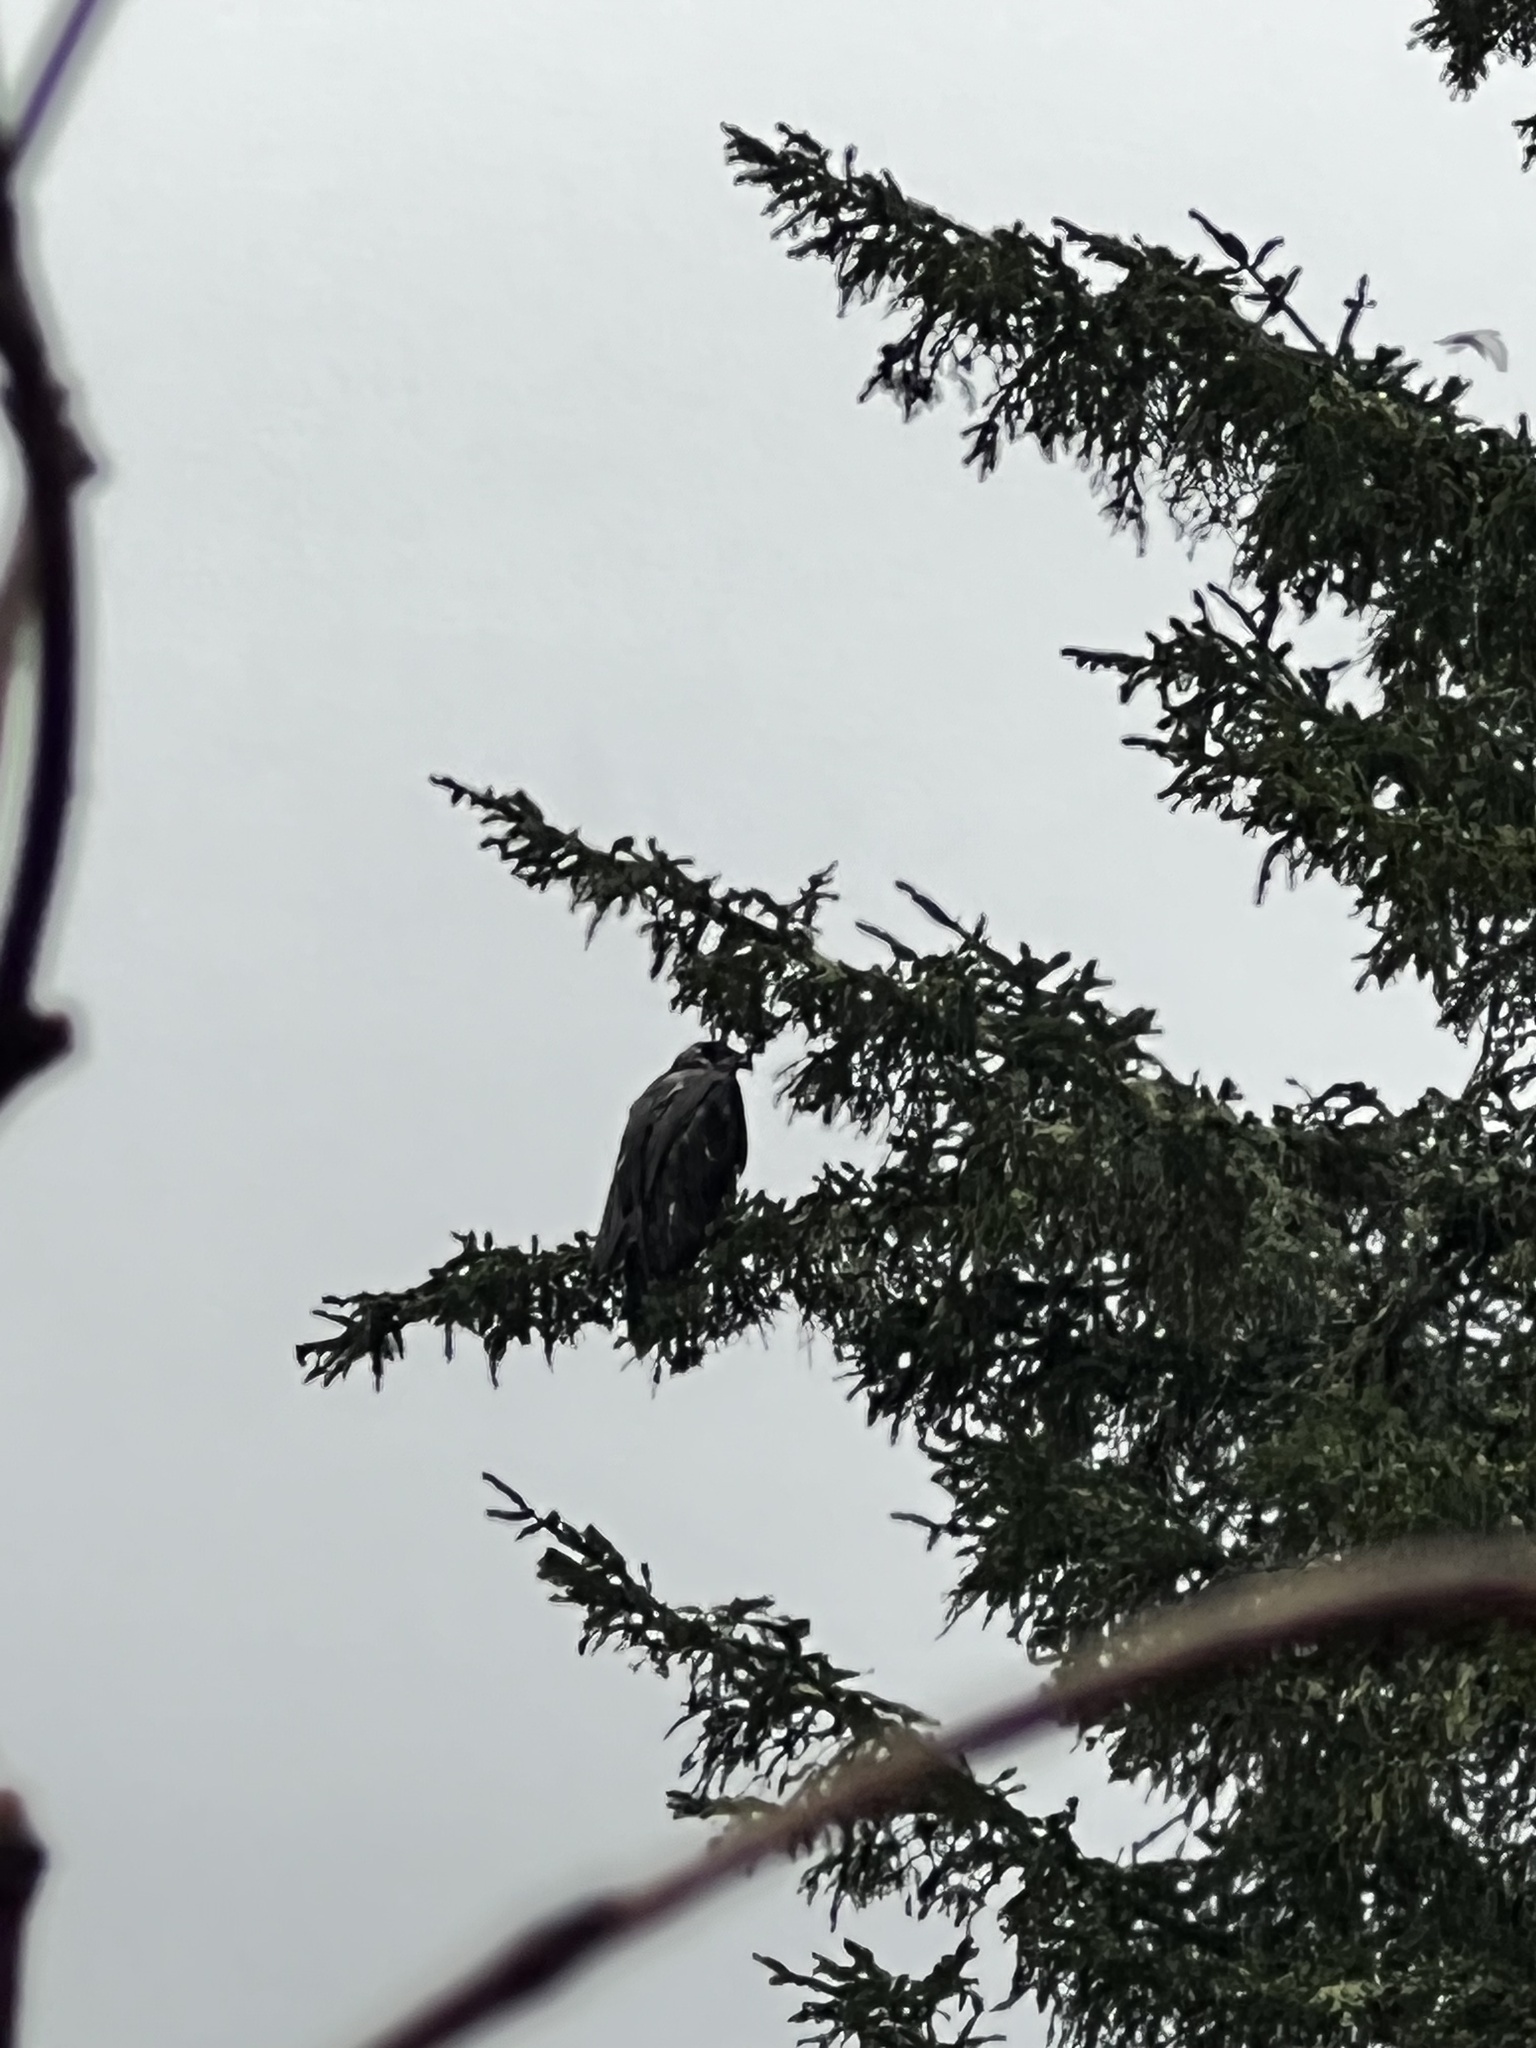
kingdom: Animalia
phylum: Chordata
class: Aves
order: Accipitriformes
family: Accipitridae
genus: Haliaeetus
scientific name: Haliaeetus leucocephalus
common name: Bald eagle
